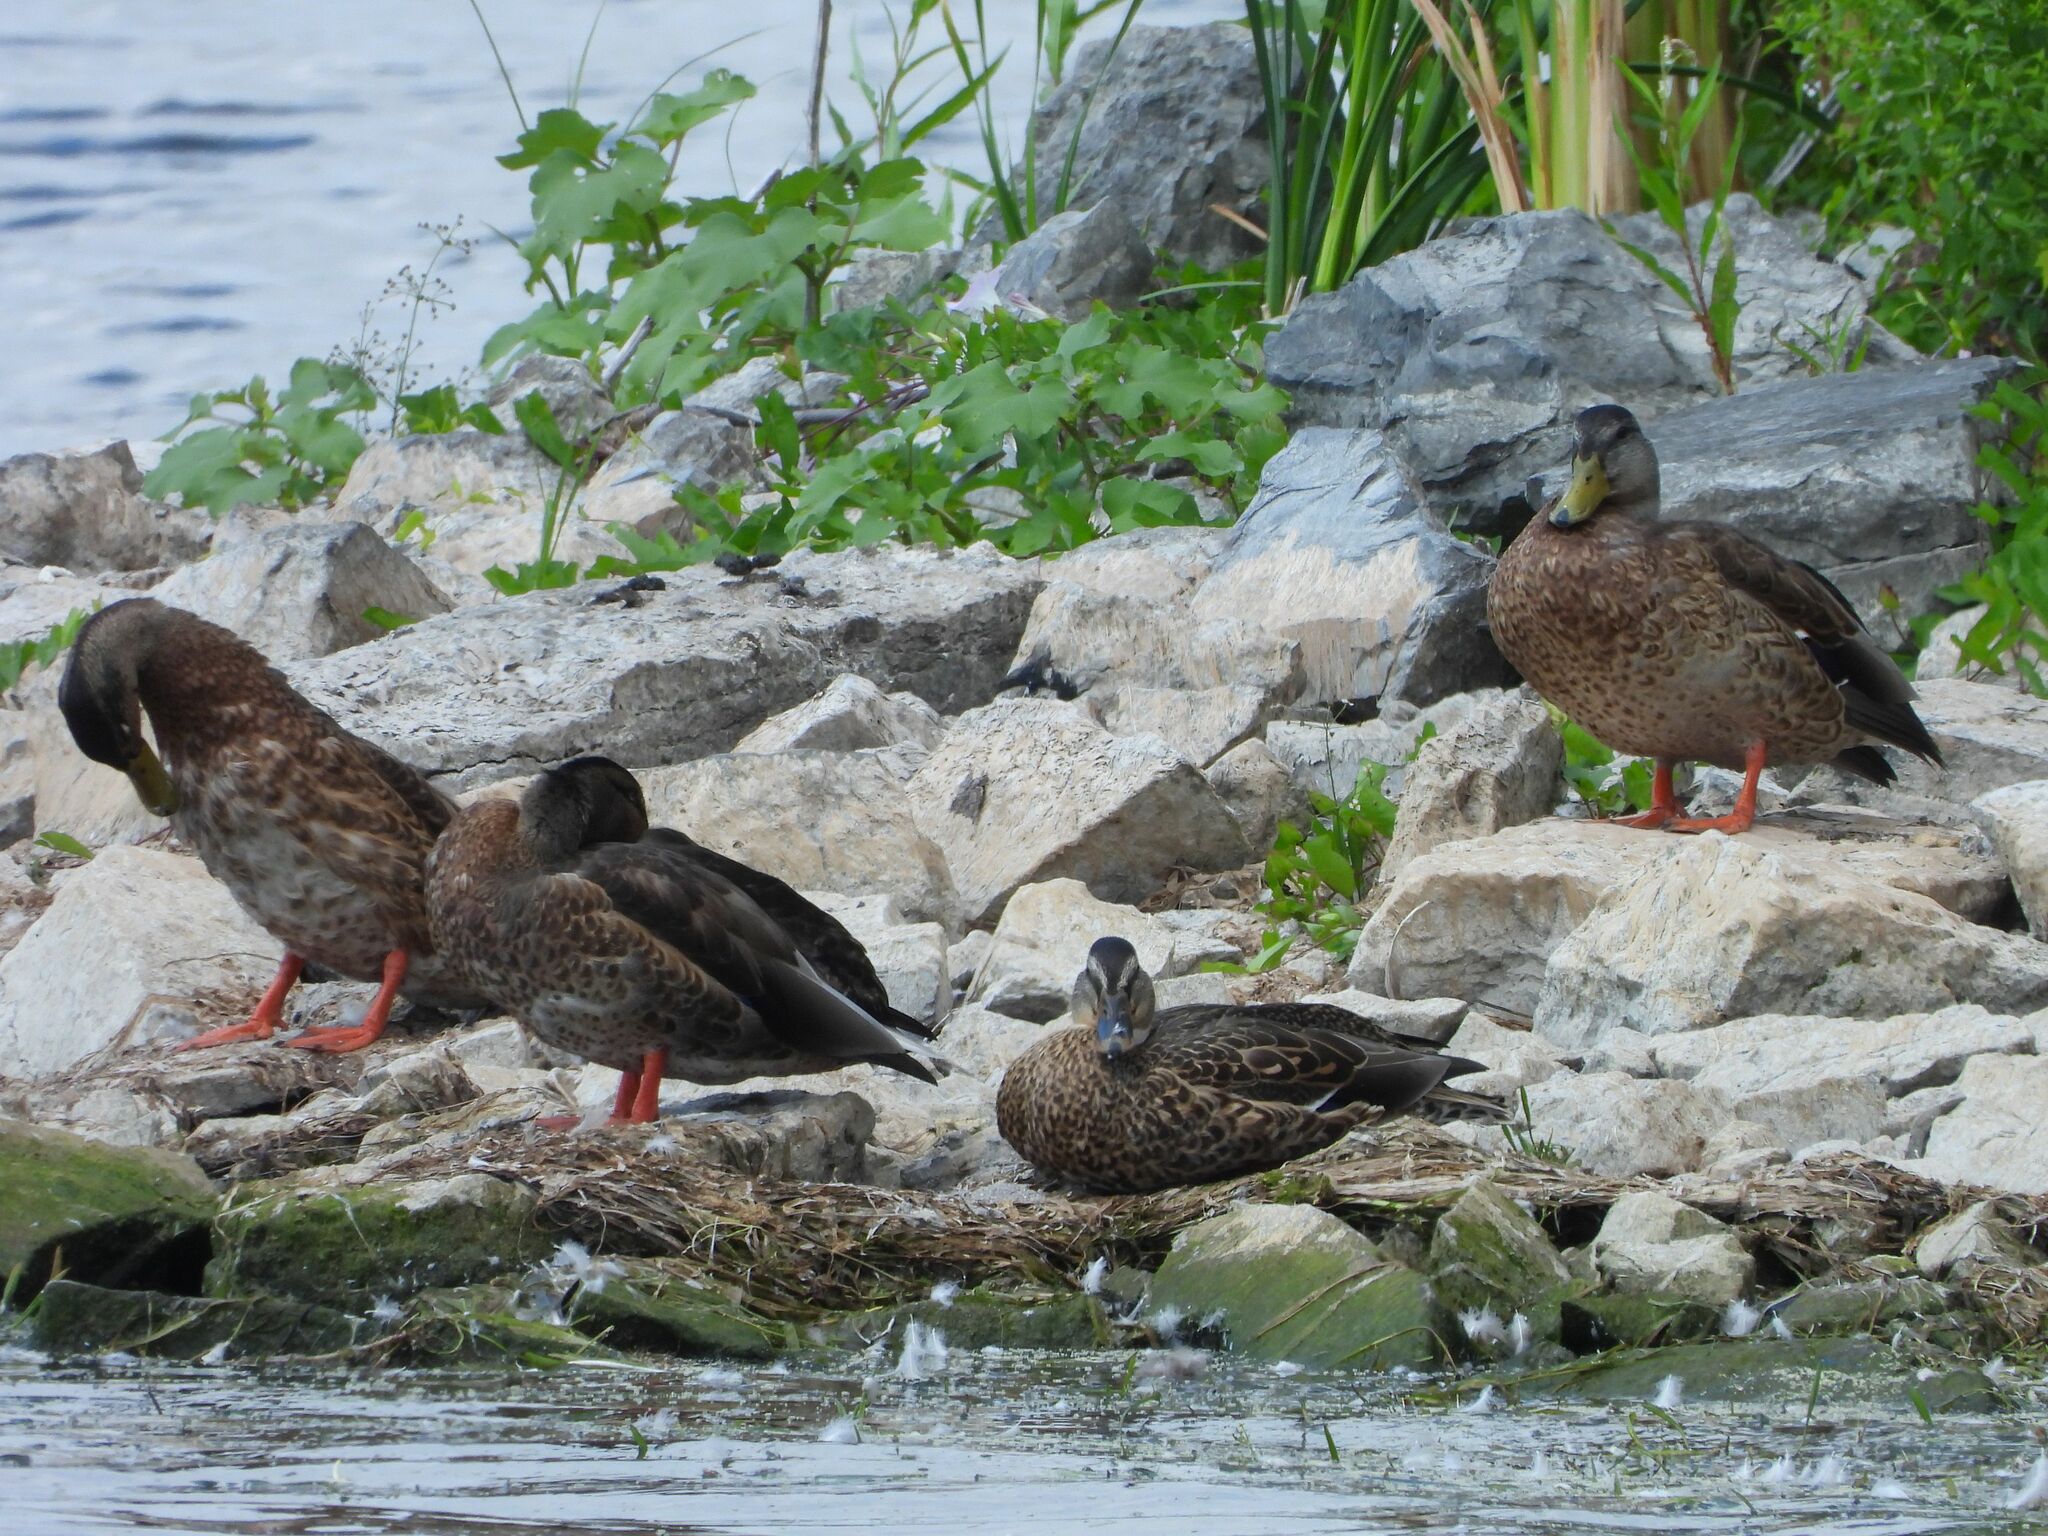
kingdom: Animalia
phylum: Chordata
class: Aves
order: Anseriformes
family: Anatidae
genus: Anas
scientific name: Anas platyrhynchos
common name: Mallard
